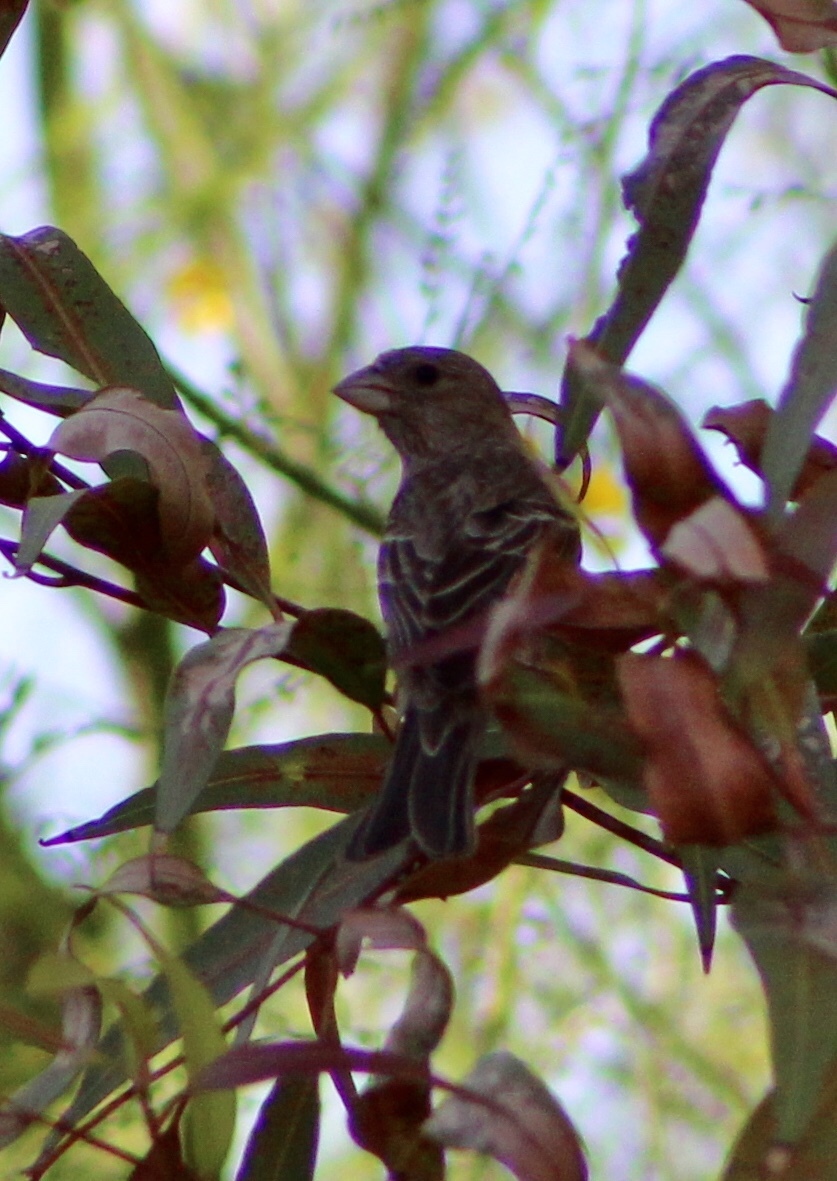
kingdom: Animalia
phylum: Chordata
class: Aves
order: Passeriformes
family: Fringillidae
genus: Haemorhous
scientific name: Haemorhous mexicanus
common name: House finch
